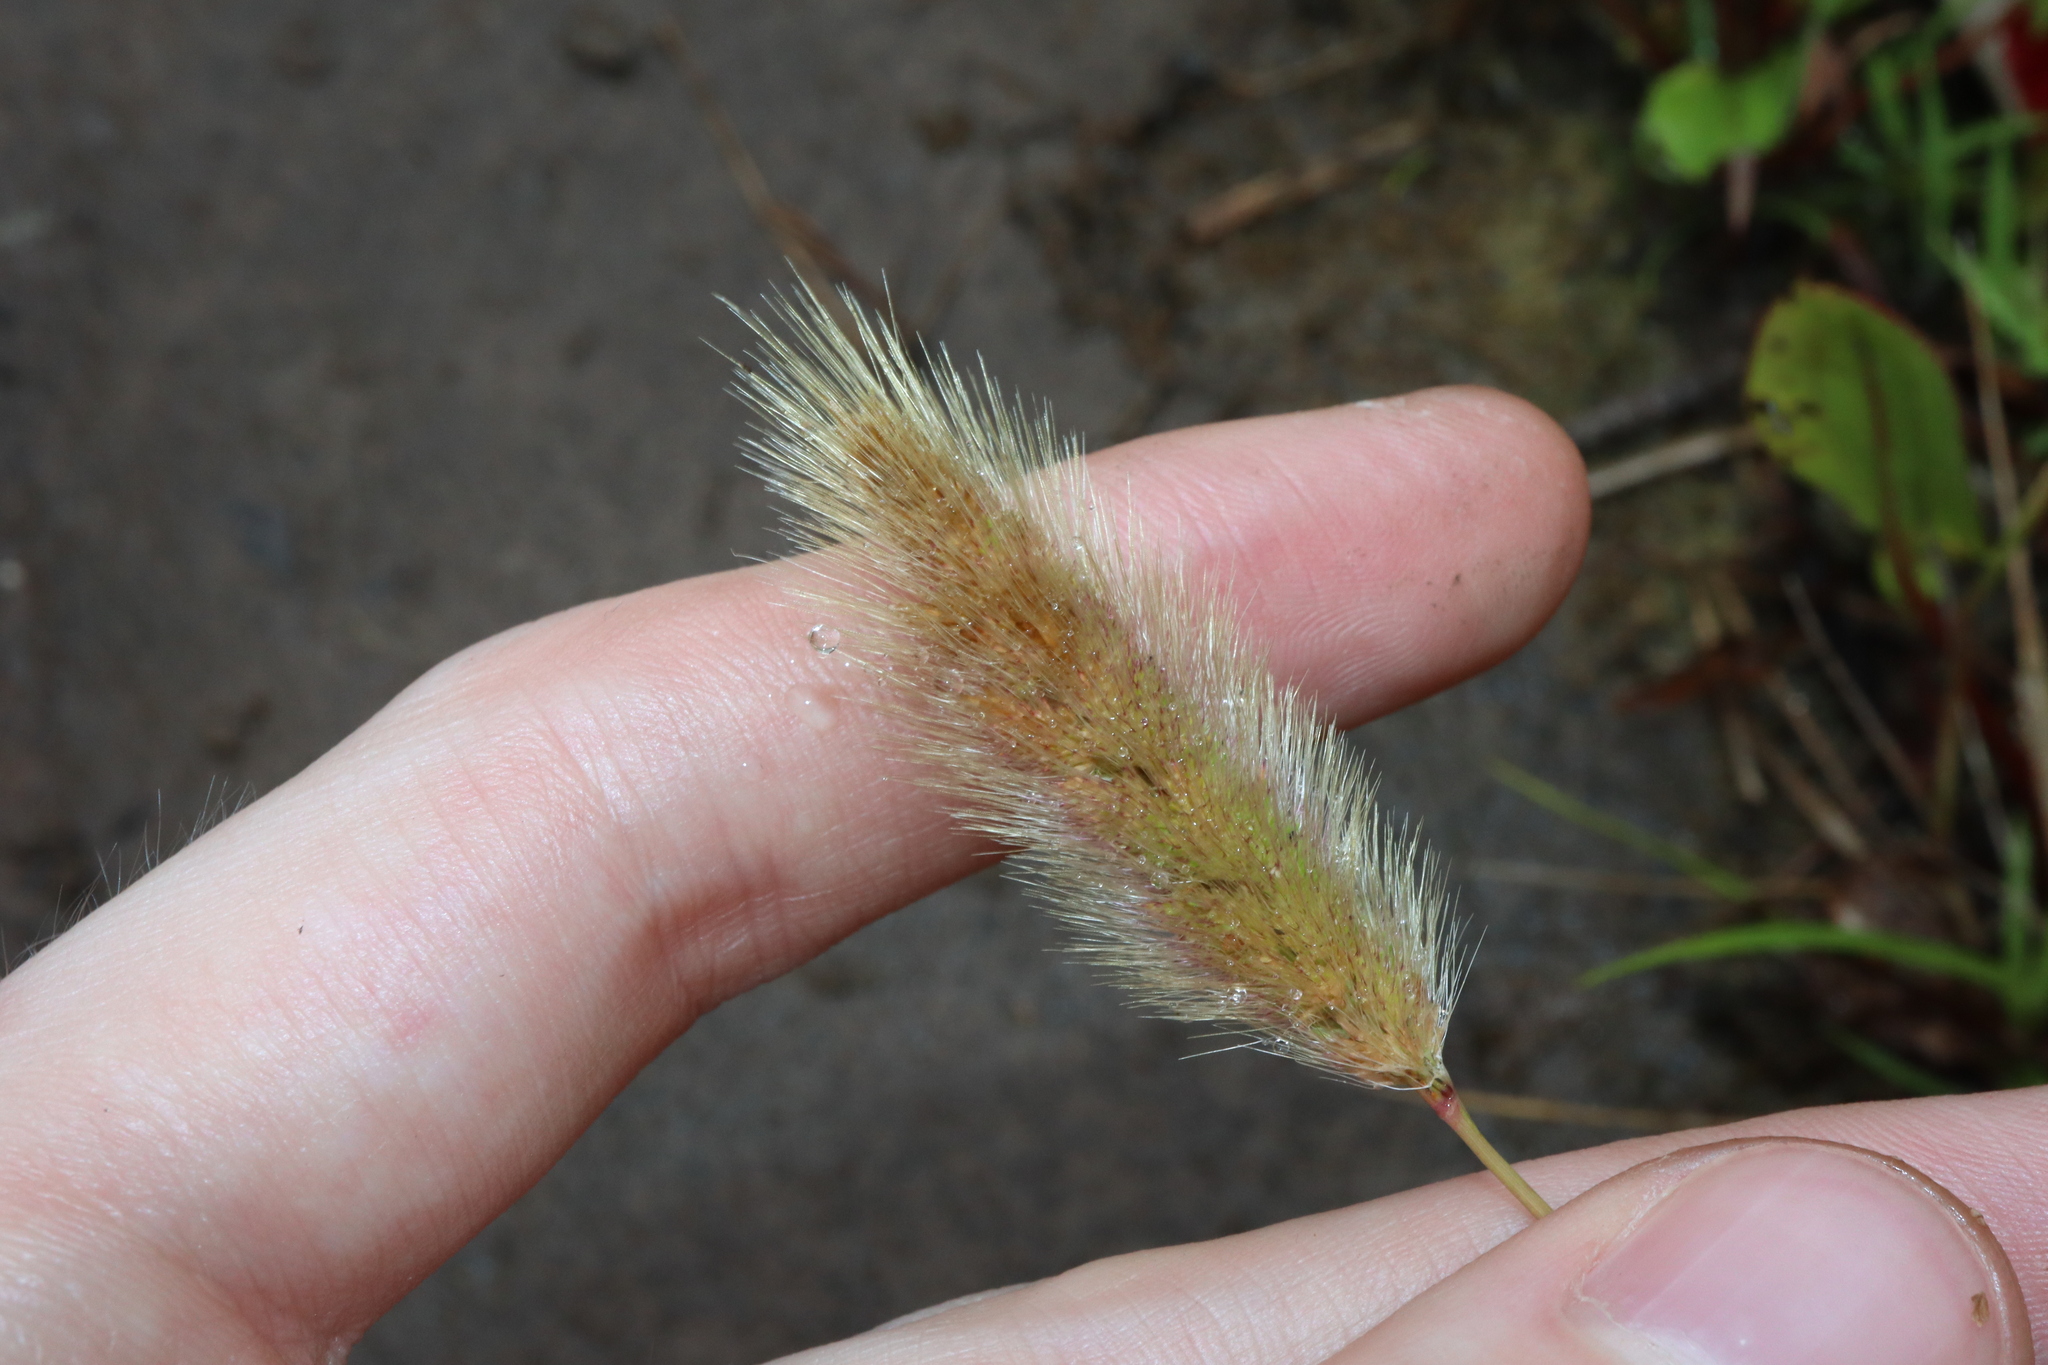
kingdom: Plantae
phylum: Tracheophyta
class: Liliopsida
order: Poales
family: Poaceae
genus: Polypogon
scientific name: Polypogon monspeliensis
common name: Annual rabbitsfoot grass
